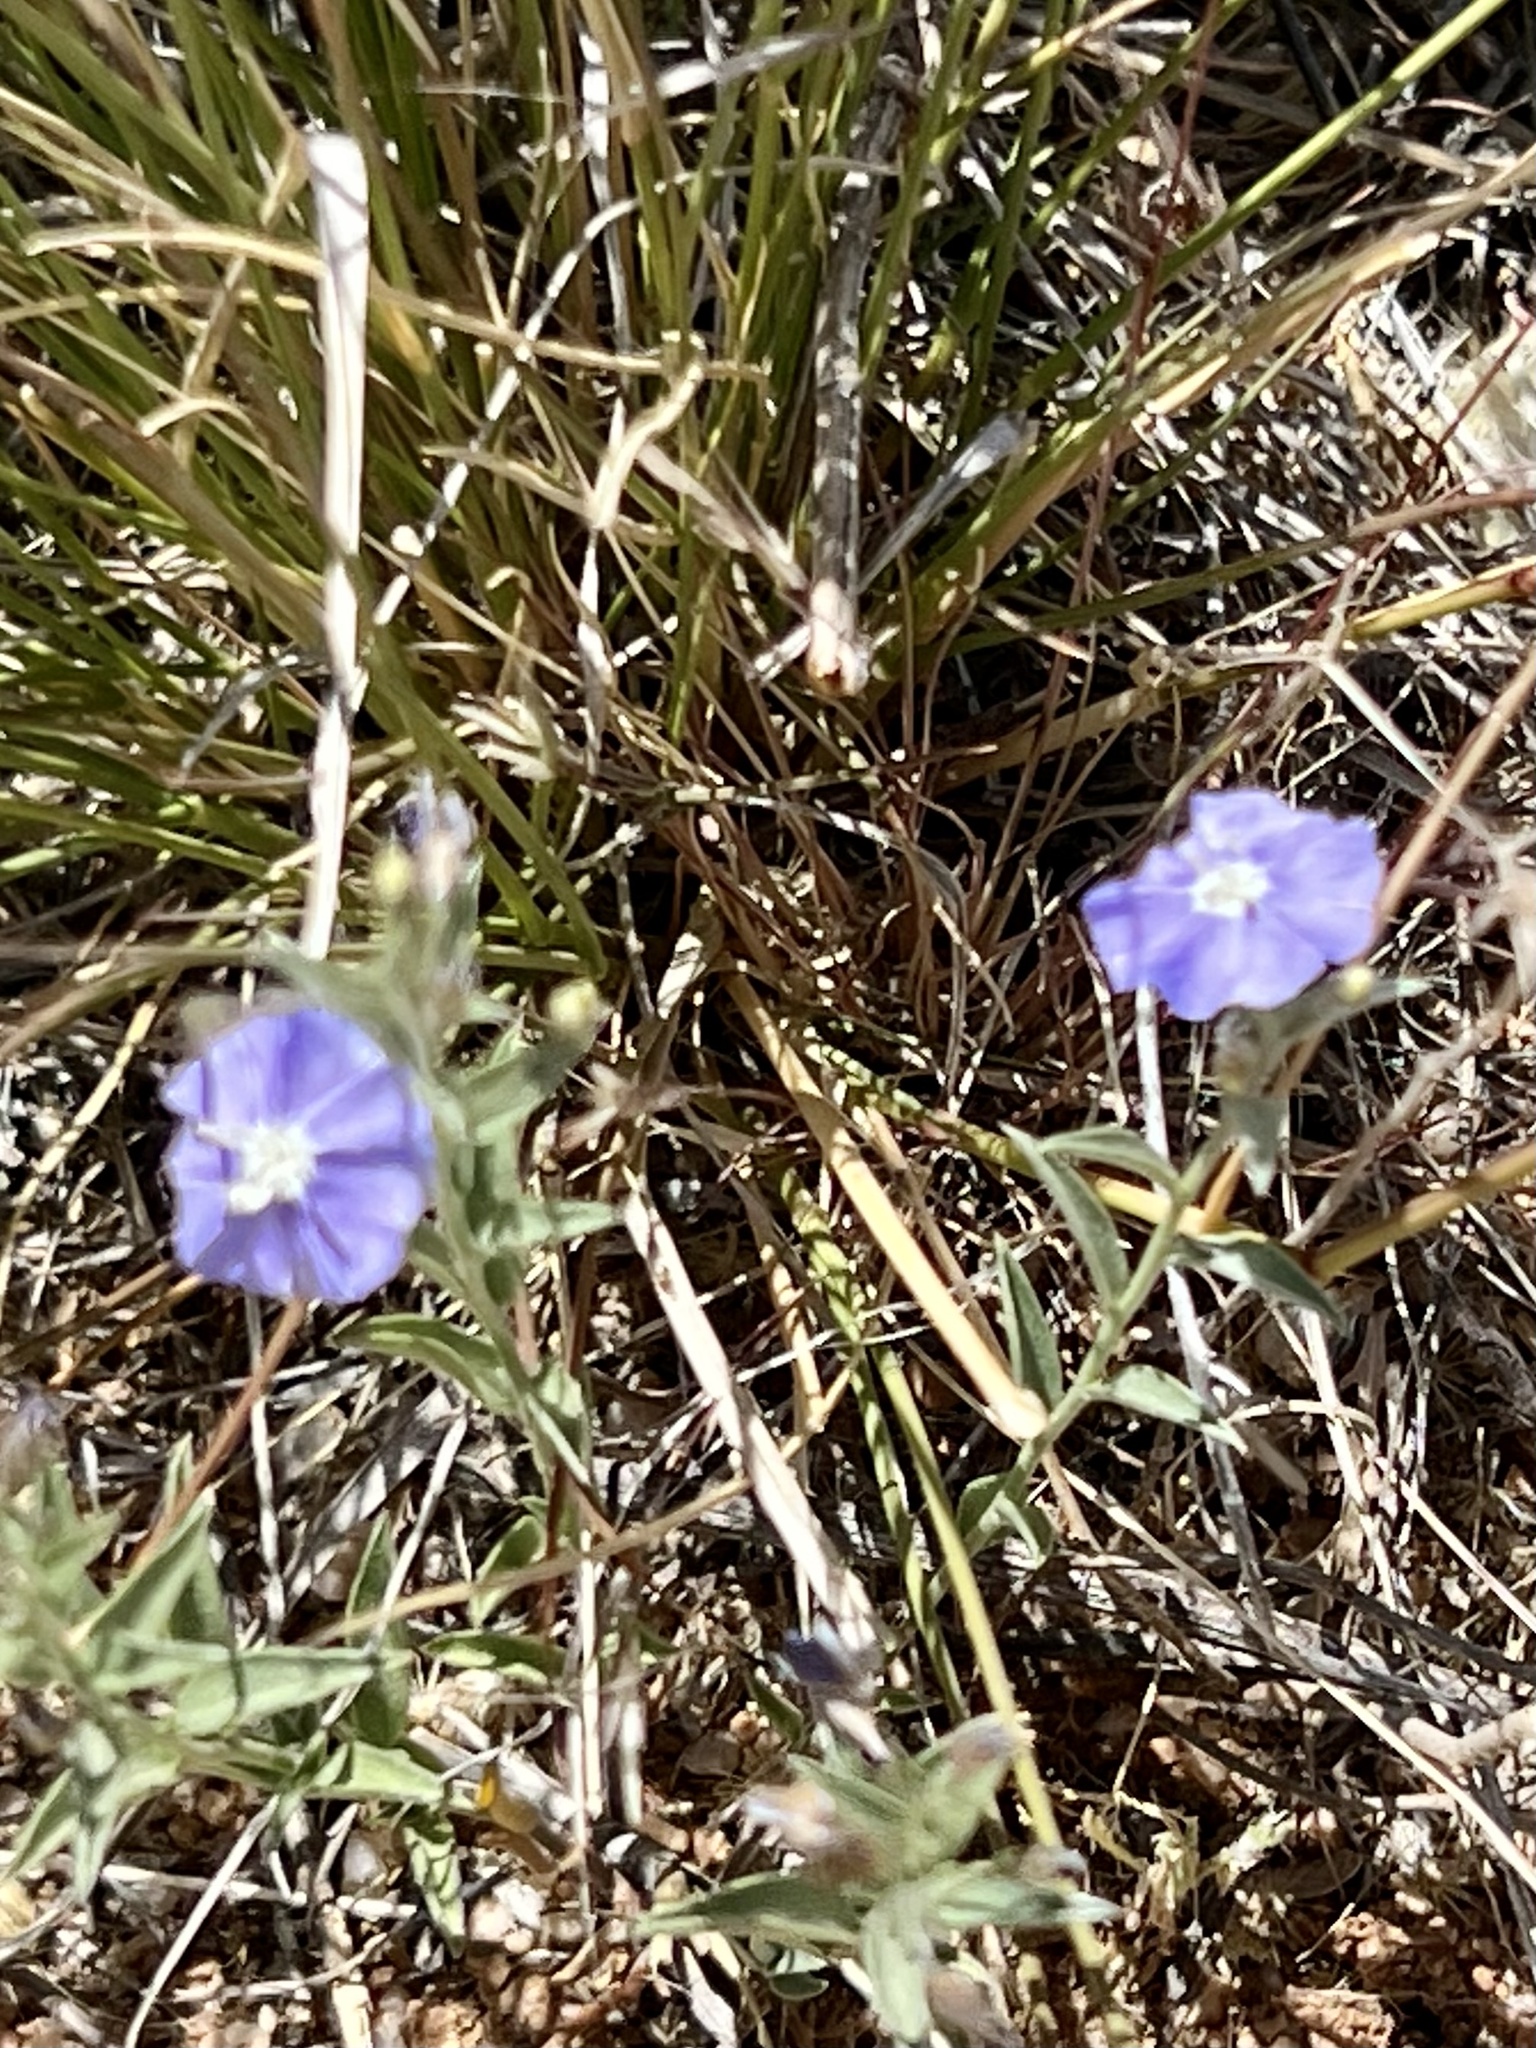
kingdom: Plantae
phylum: Tracheophyta
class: Magnoliopsida
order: Solanales
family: Convolvulaceae
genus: Evolvulus
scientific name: Evolvulus arizonicus
